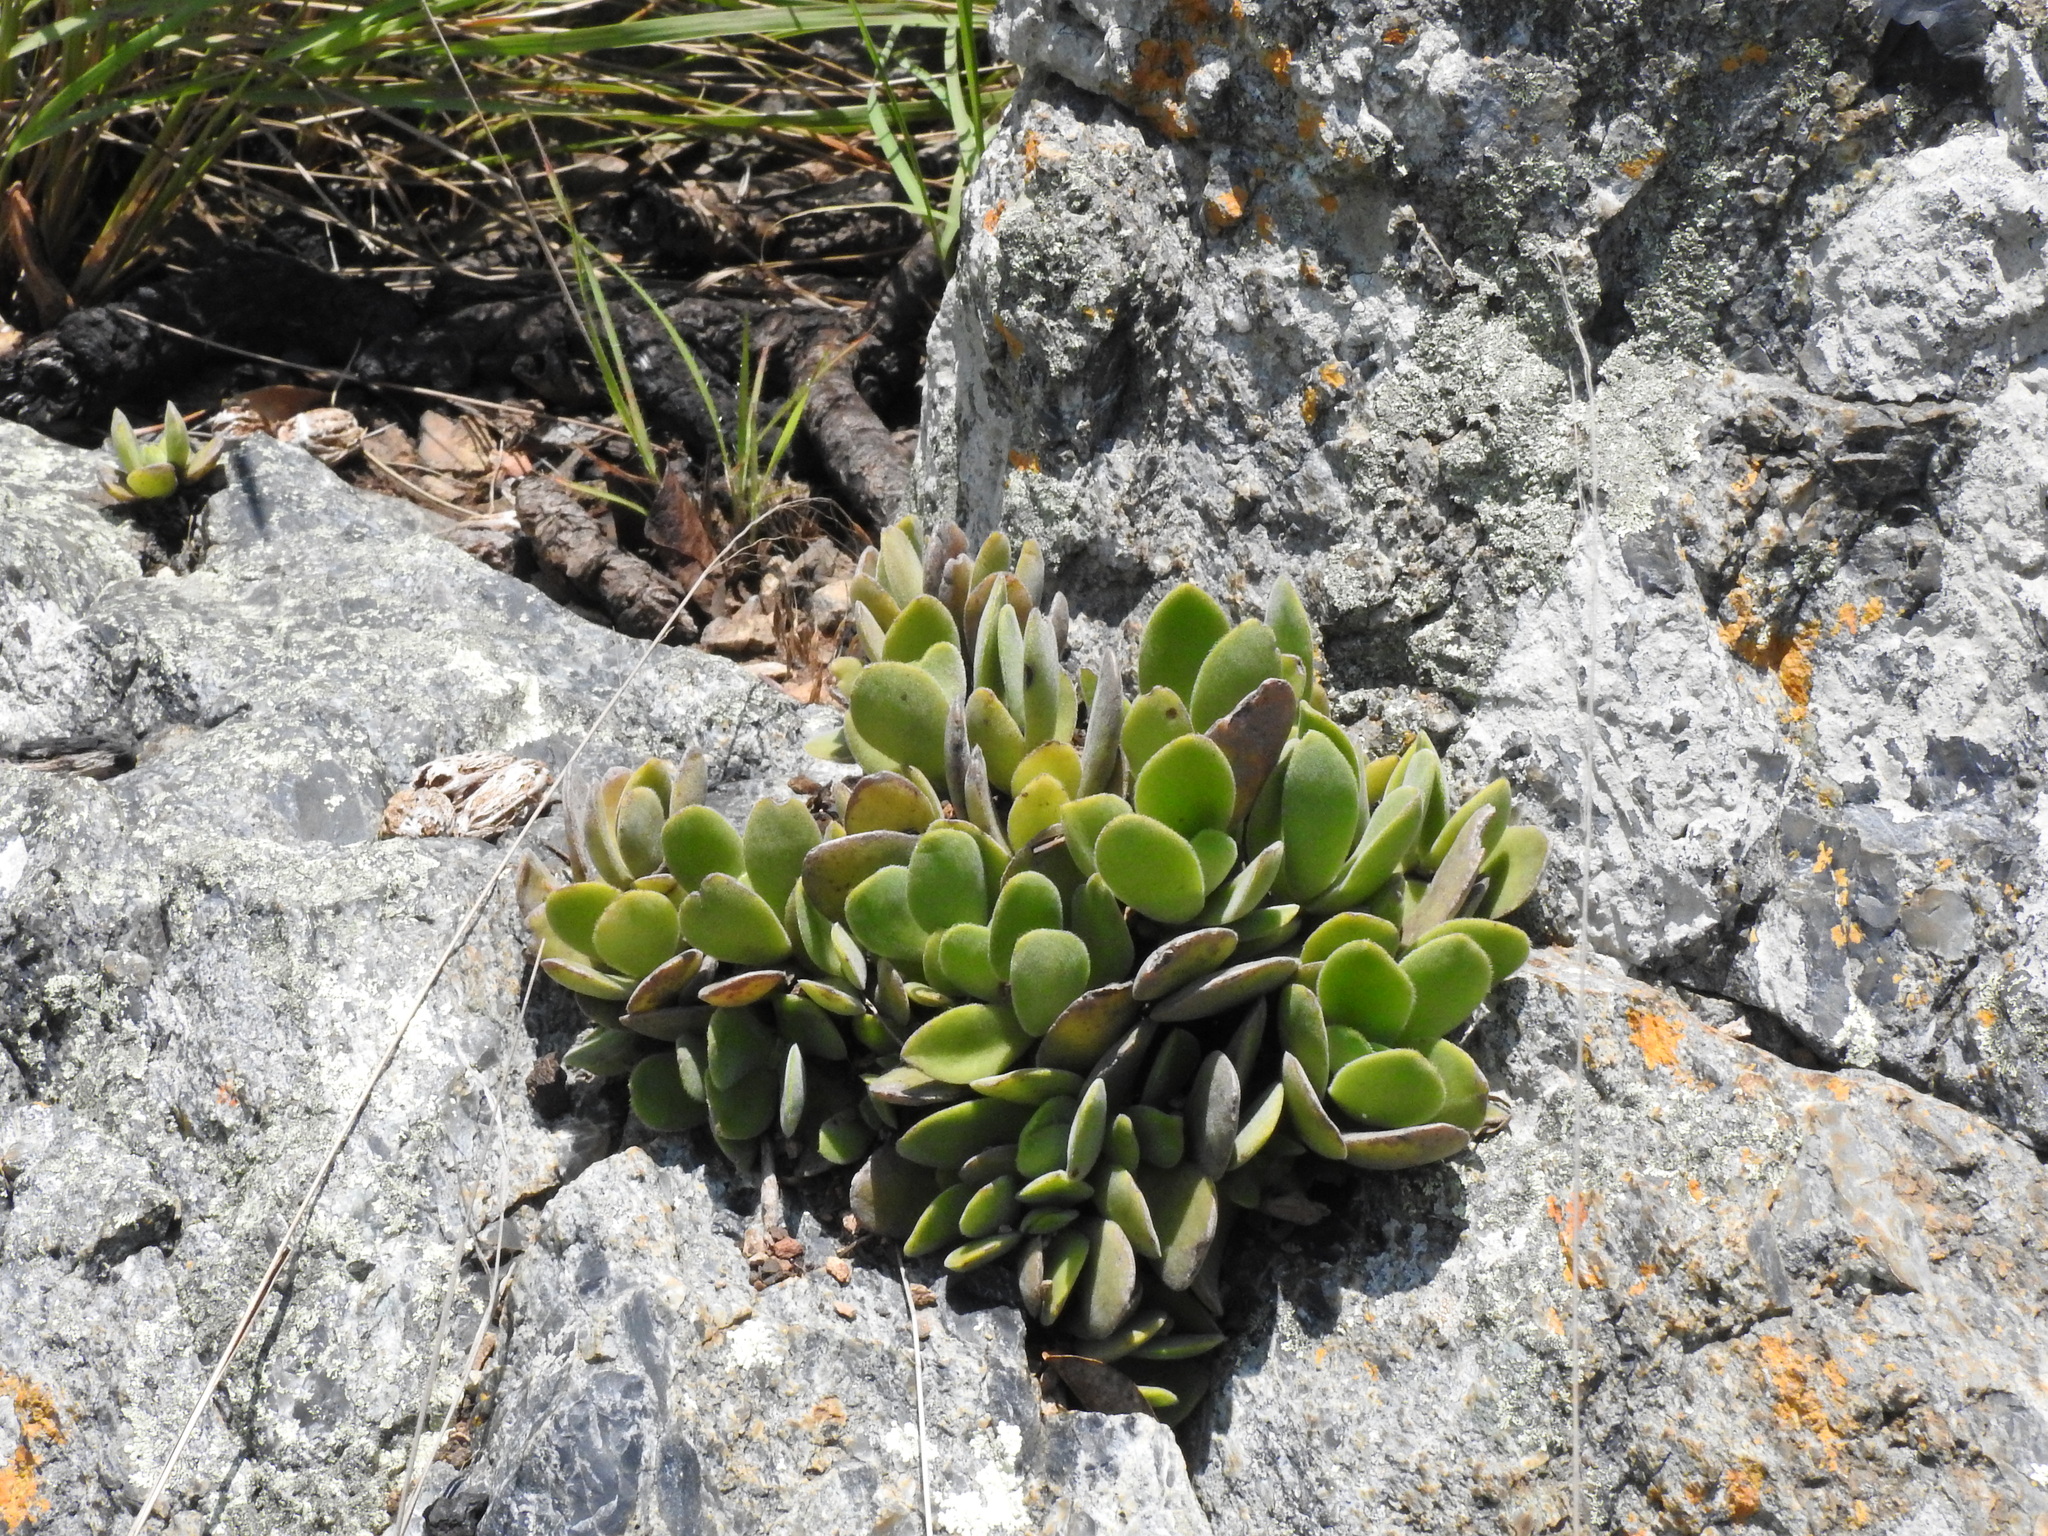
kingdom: Plantae
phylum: Tracheophyta
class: Magnoliopsida
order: Saxifragales
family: Crassulaceae
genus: Crassula
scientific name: Crassula globularioides
